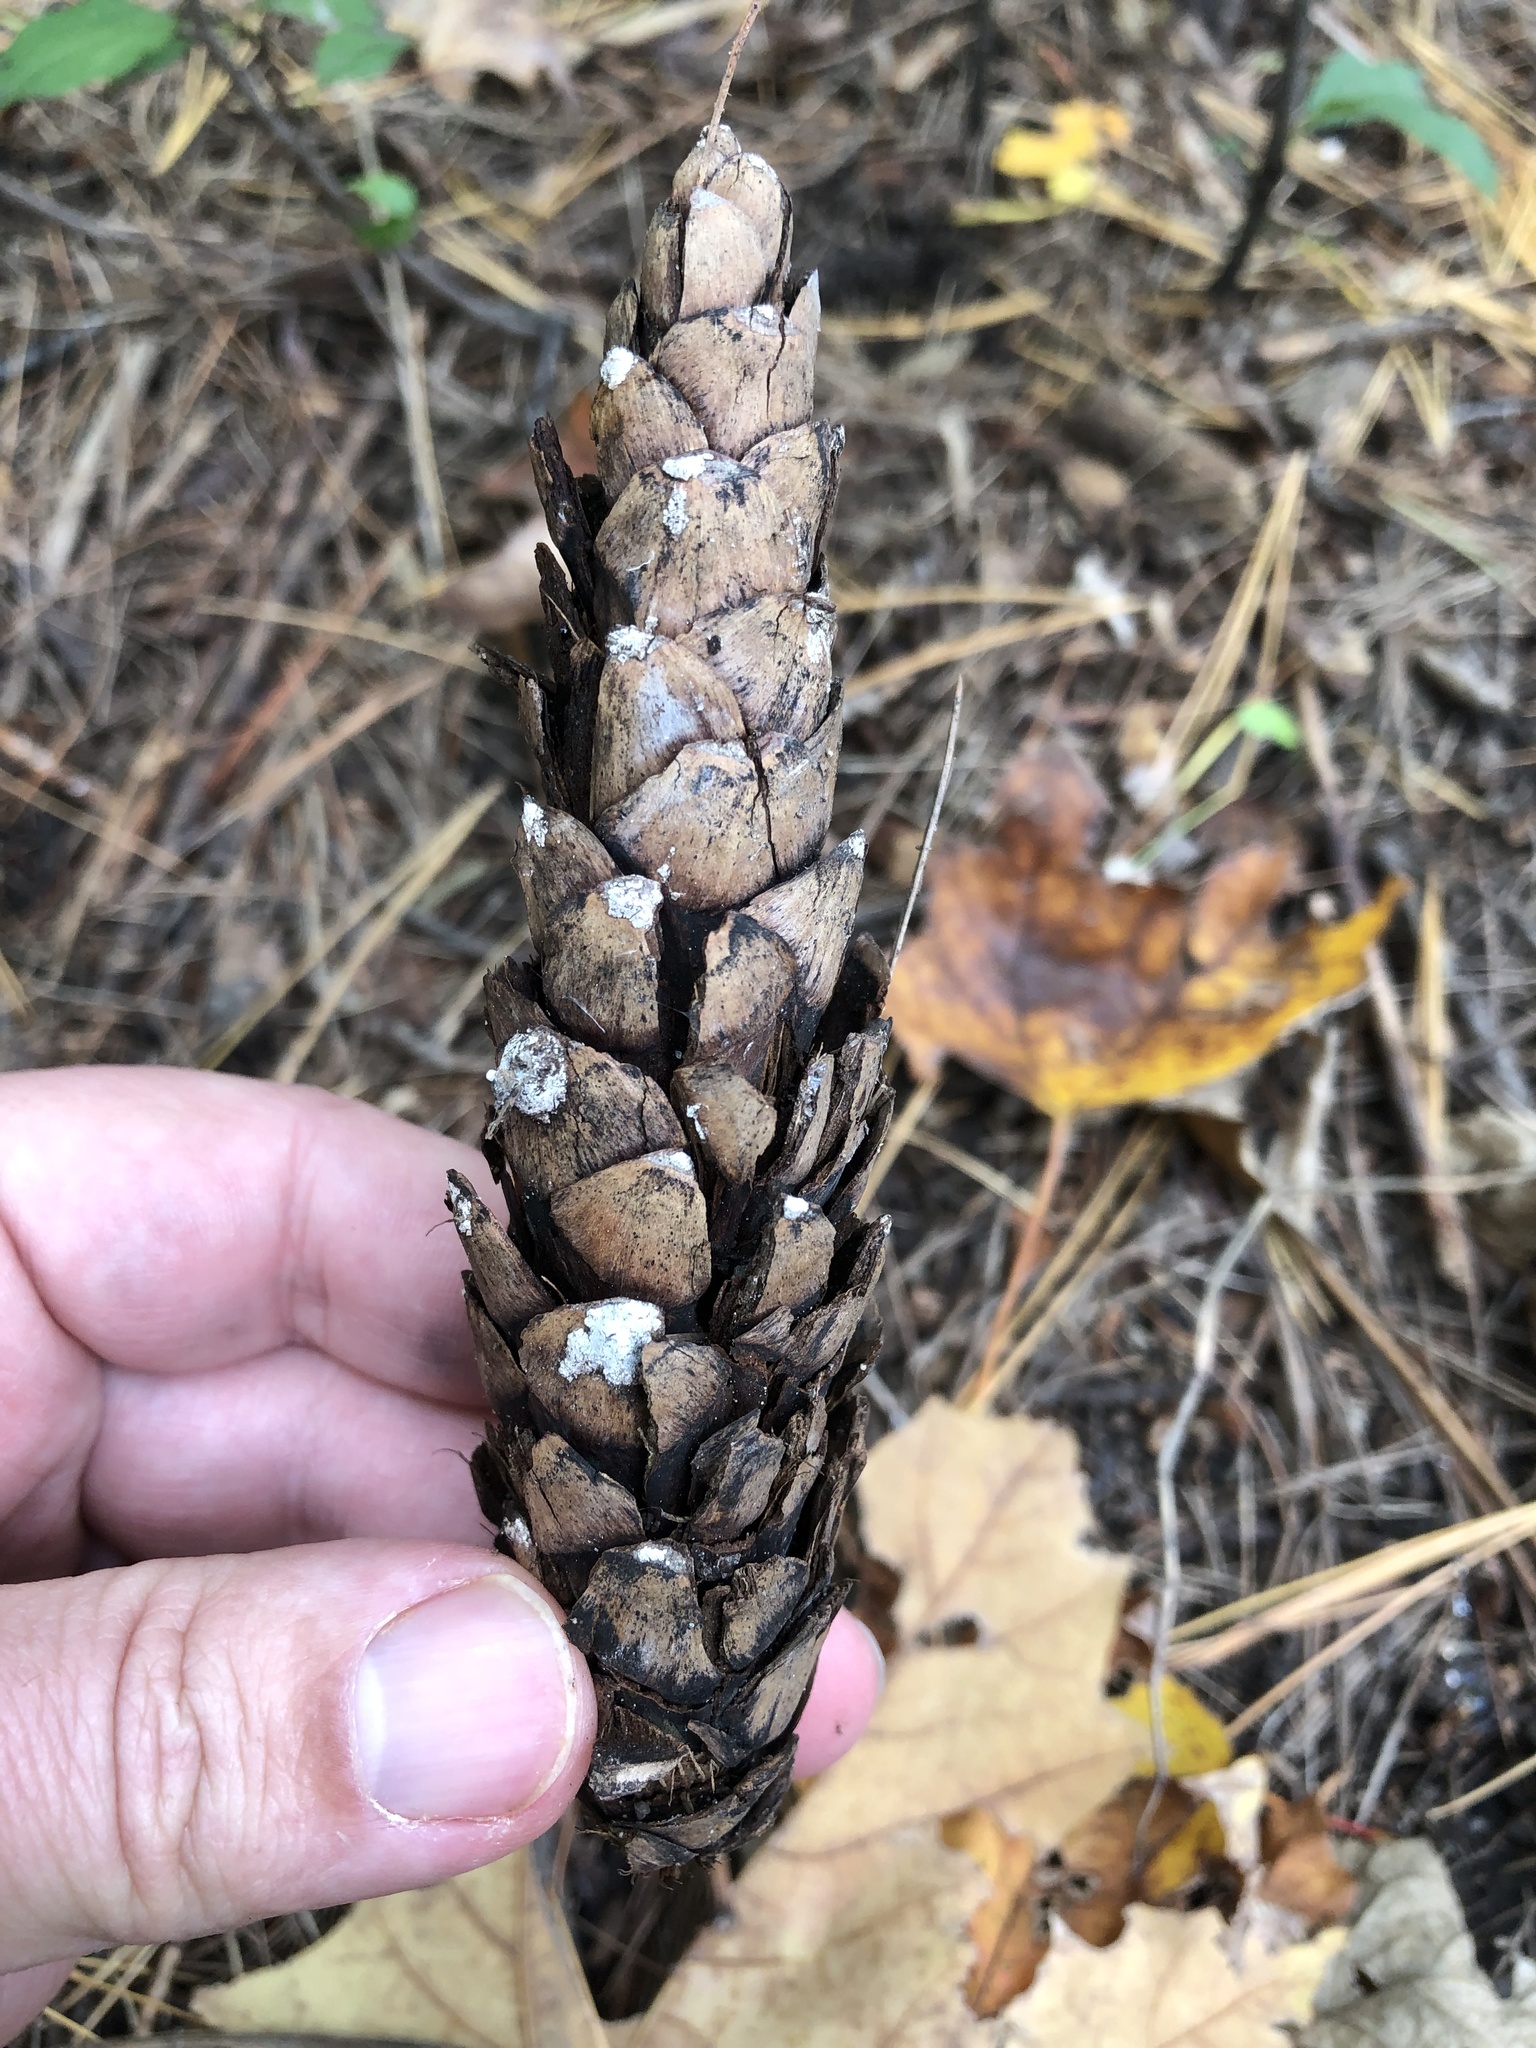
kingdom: Plantae
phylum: Tracheophyta
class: Pinopsida
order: Pinales
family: Pinaceae
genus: Pinus
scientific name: Pinus strobus
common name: Weymouth pine
